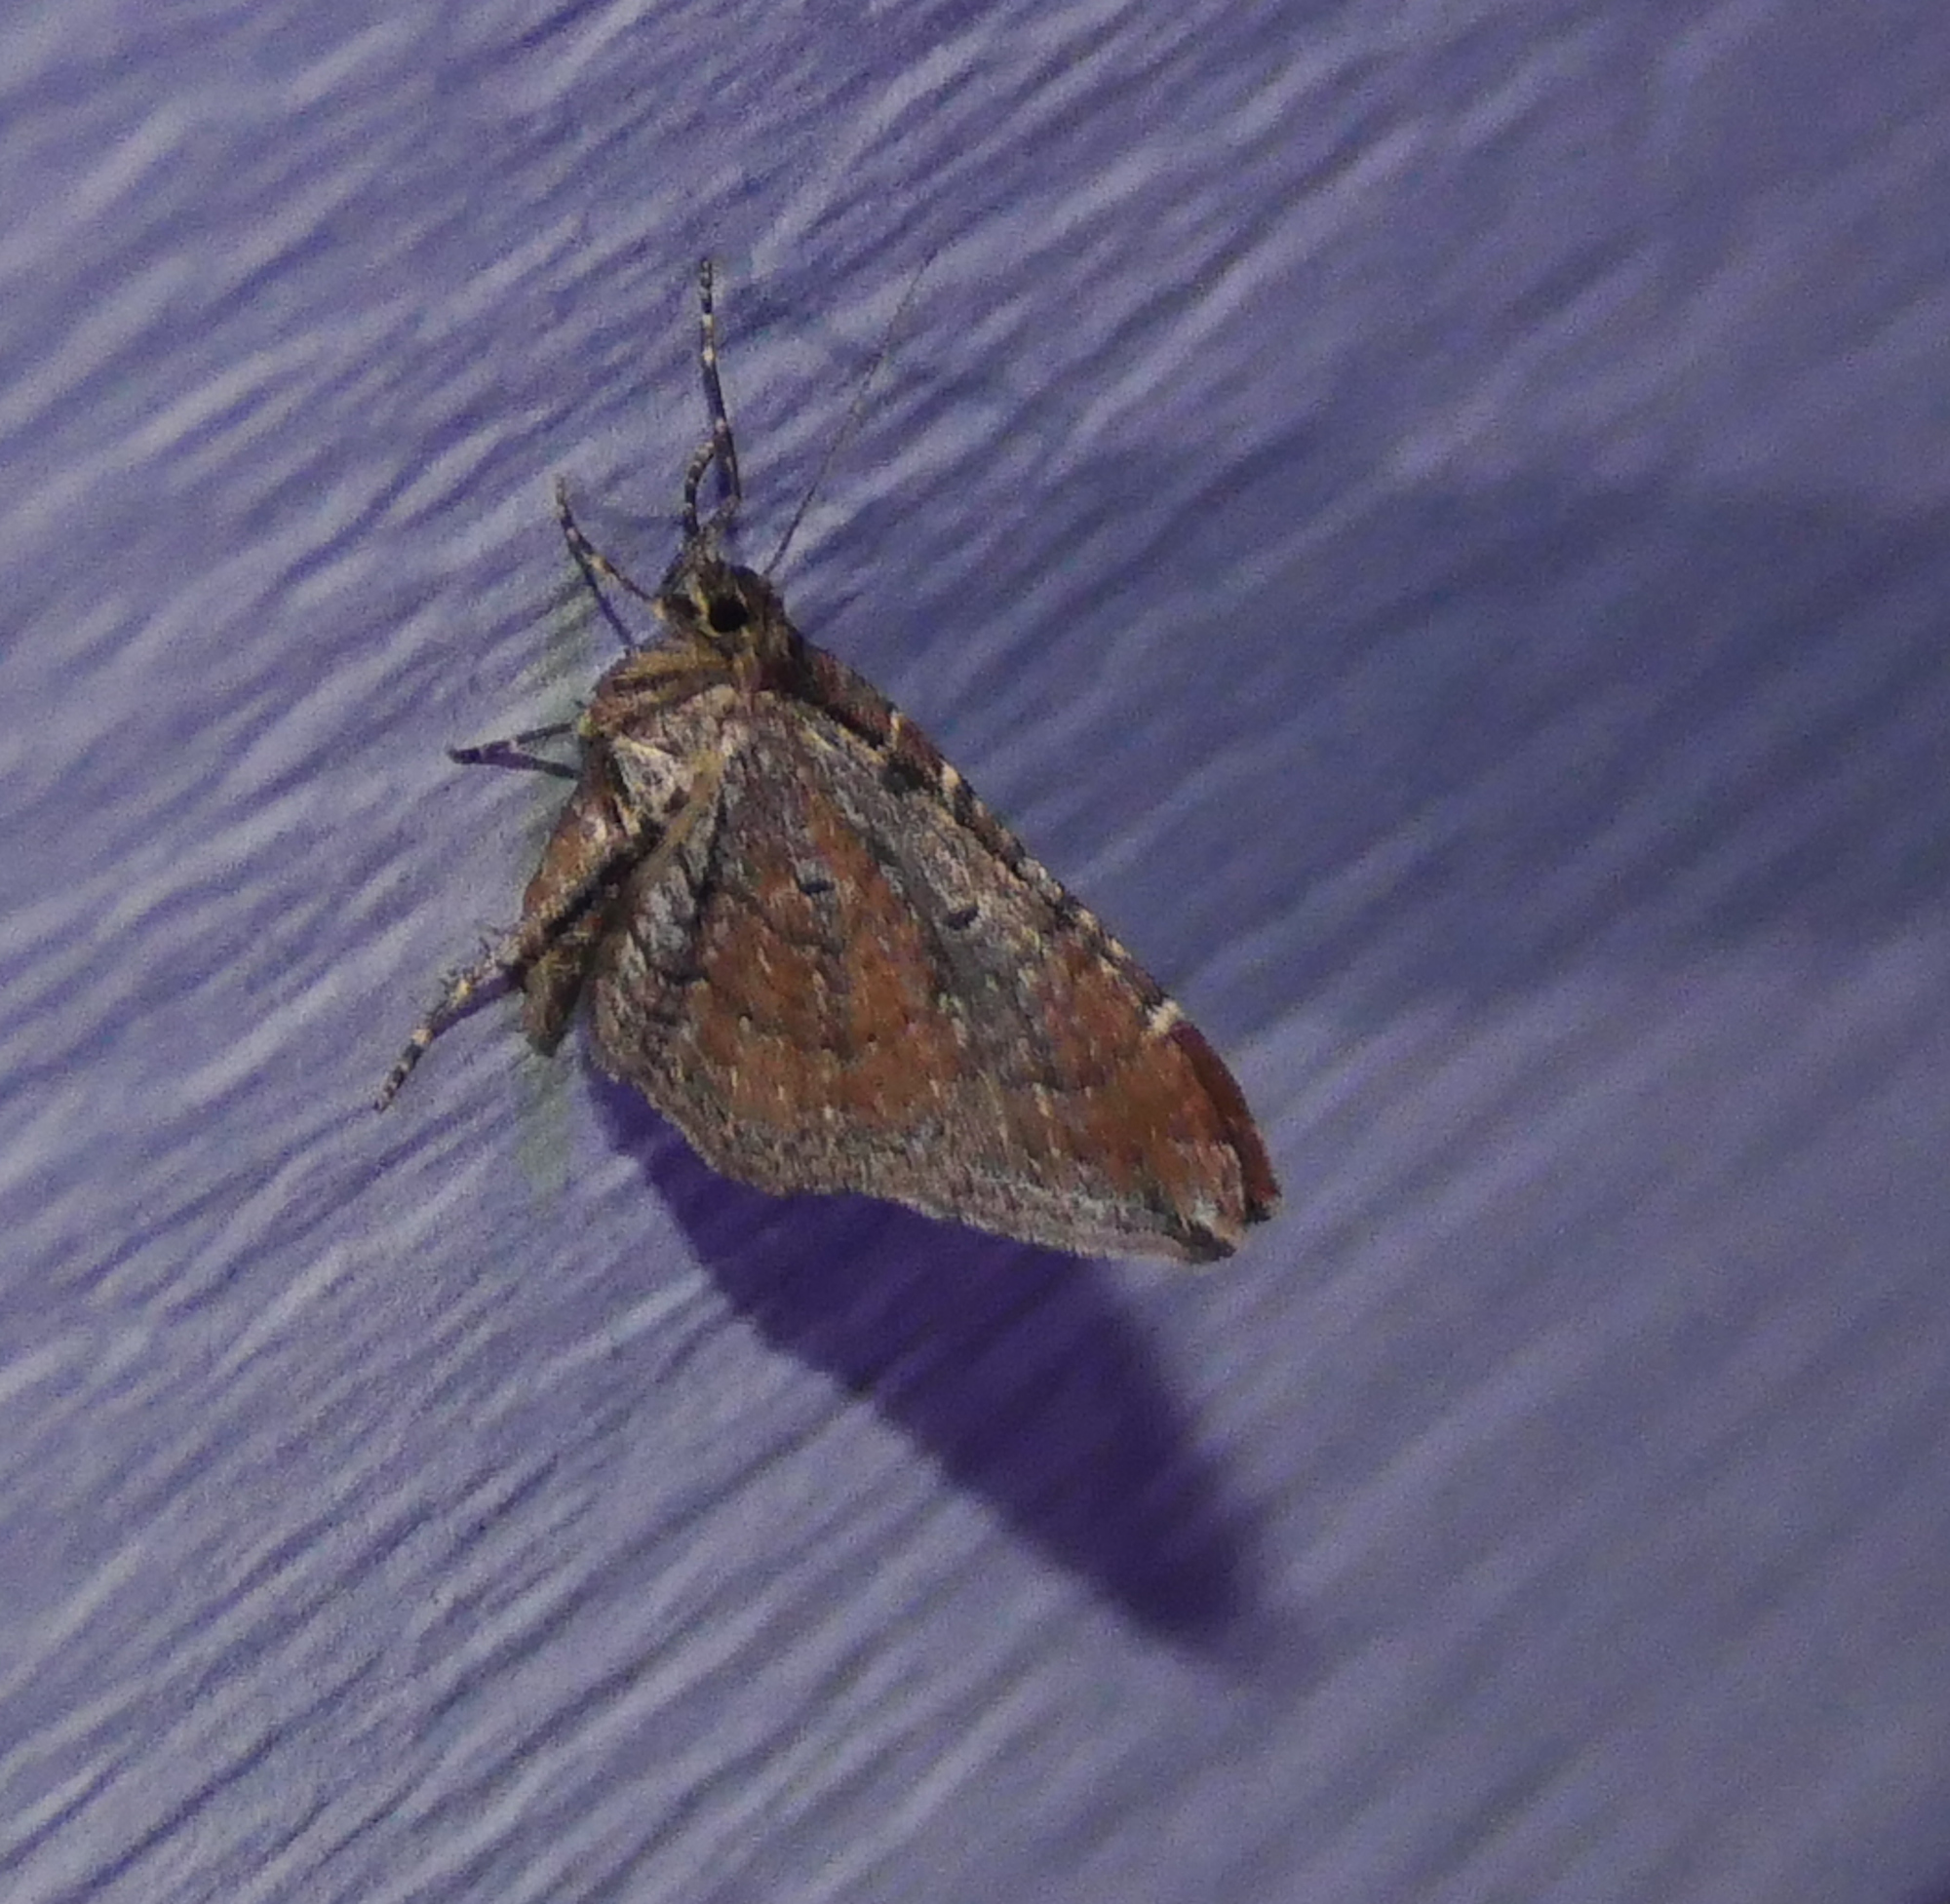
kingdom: Animalia
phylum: Arthropoda
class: Insecta
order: Lepidoptera
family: Geometridae
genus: Orthonama
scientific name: Orthonama obstipata
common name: The gem
